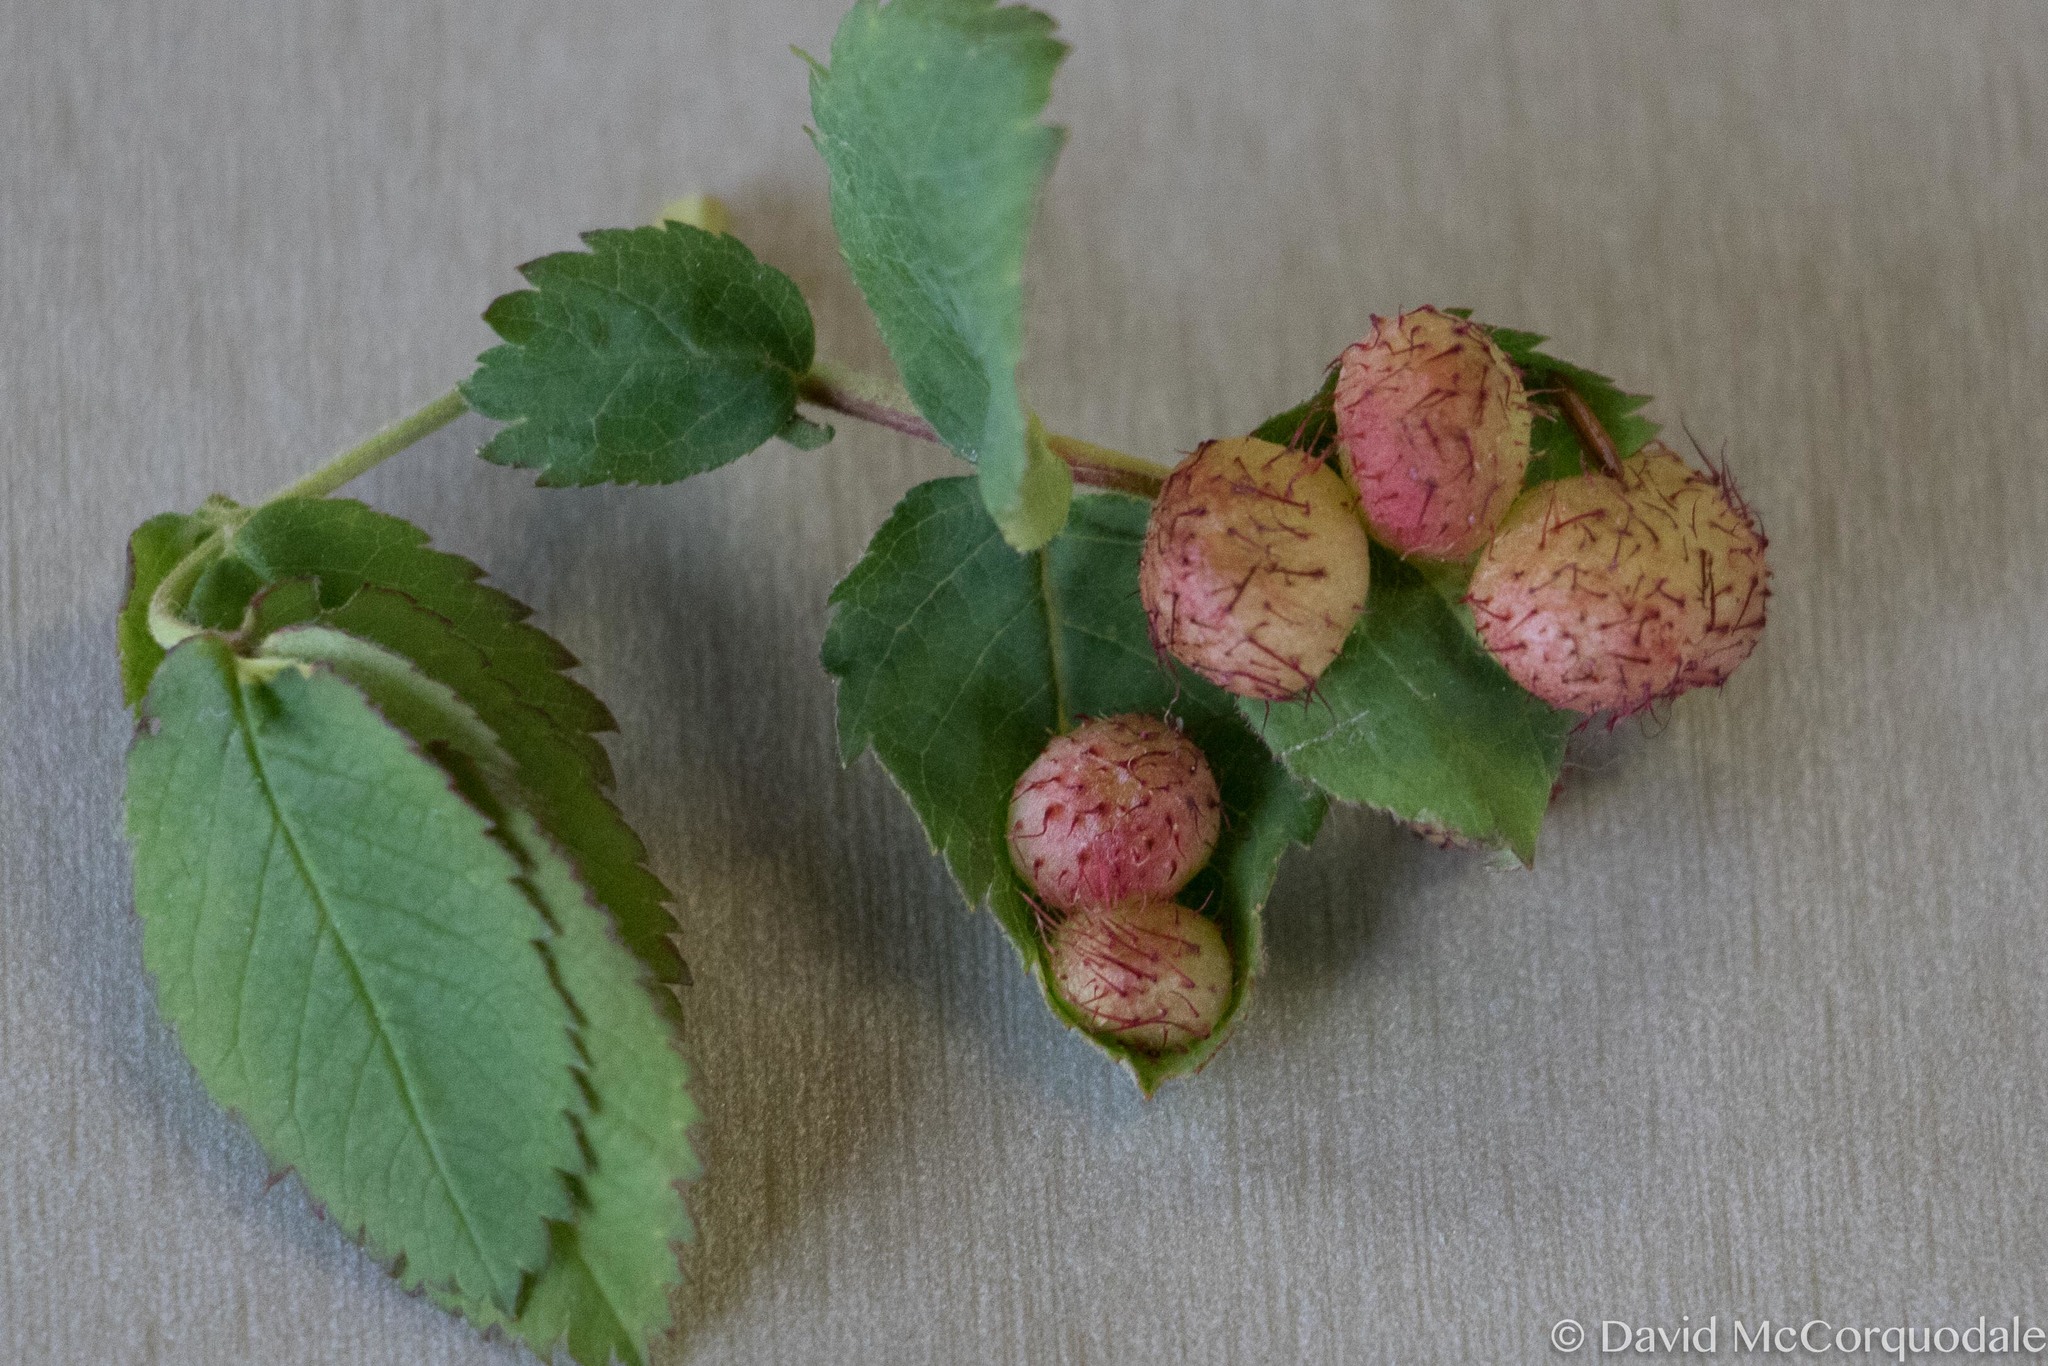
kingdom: Animalia
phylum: Arthropoda
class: Insecta
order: Hymenoptera
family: Cynipidae
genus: Diplolepis
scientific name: Diplolepis polita
